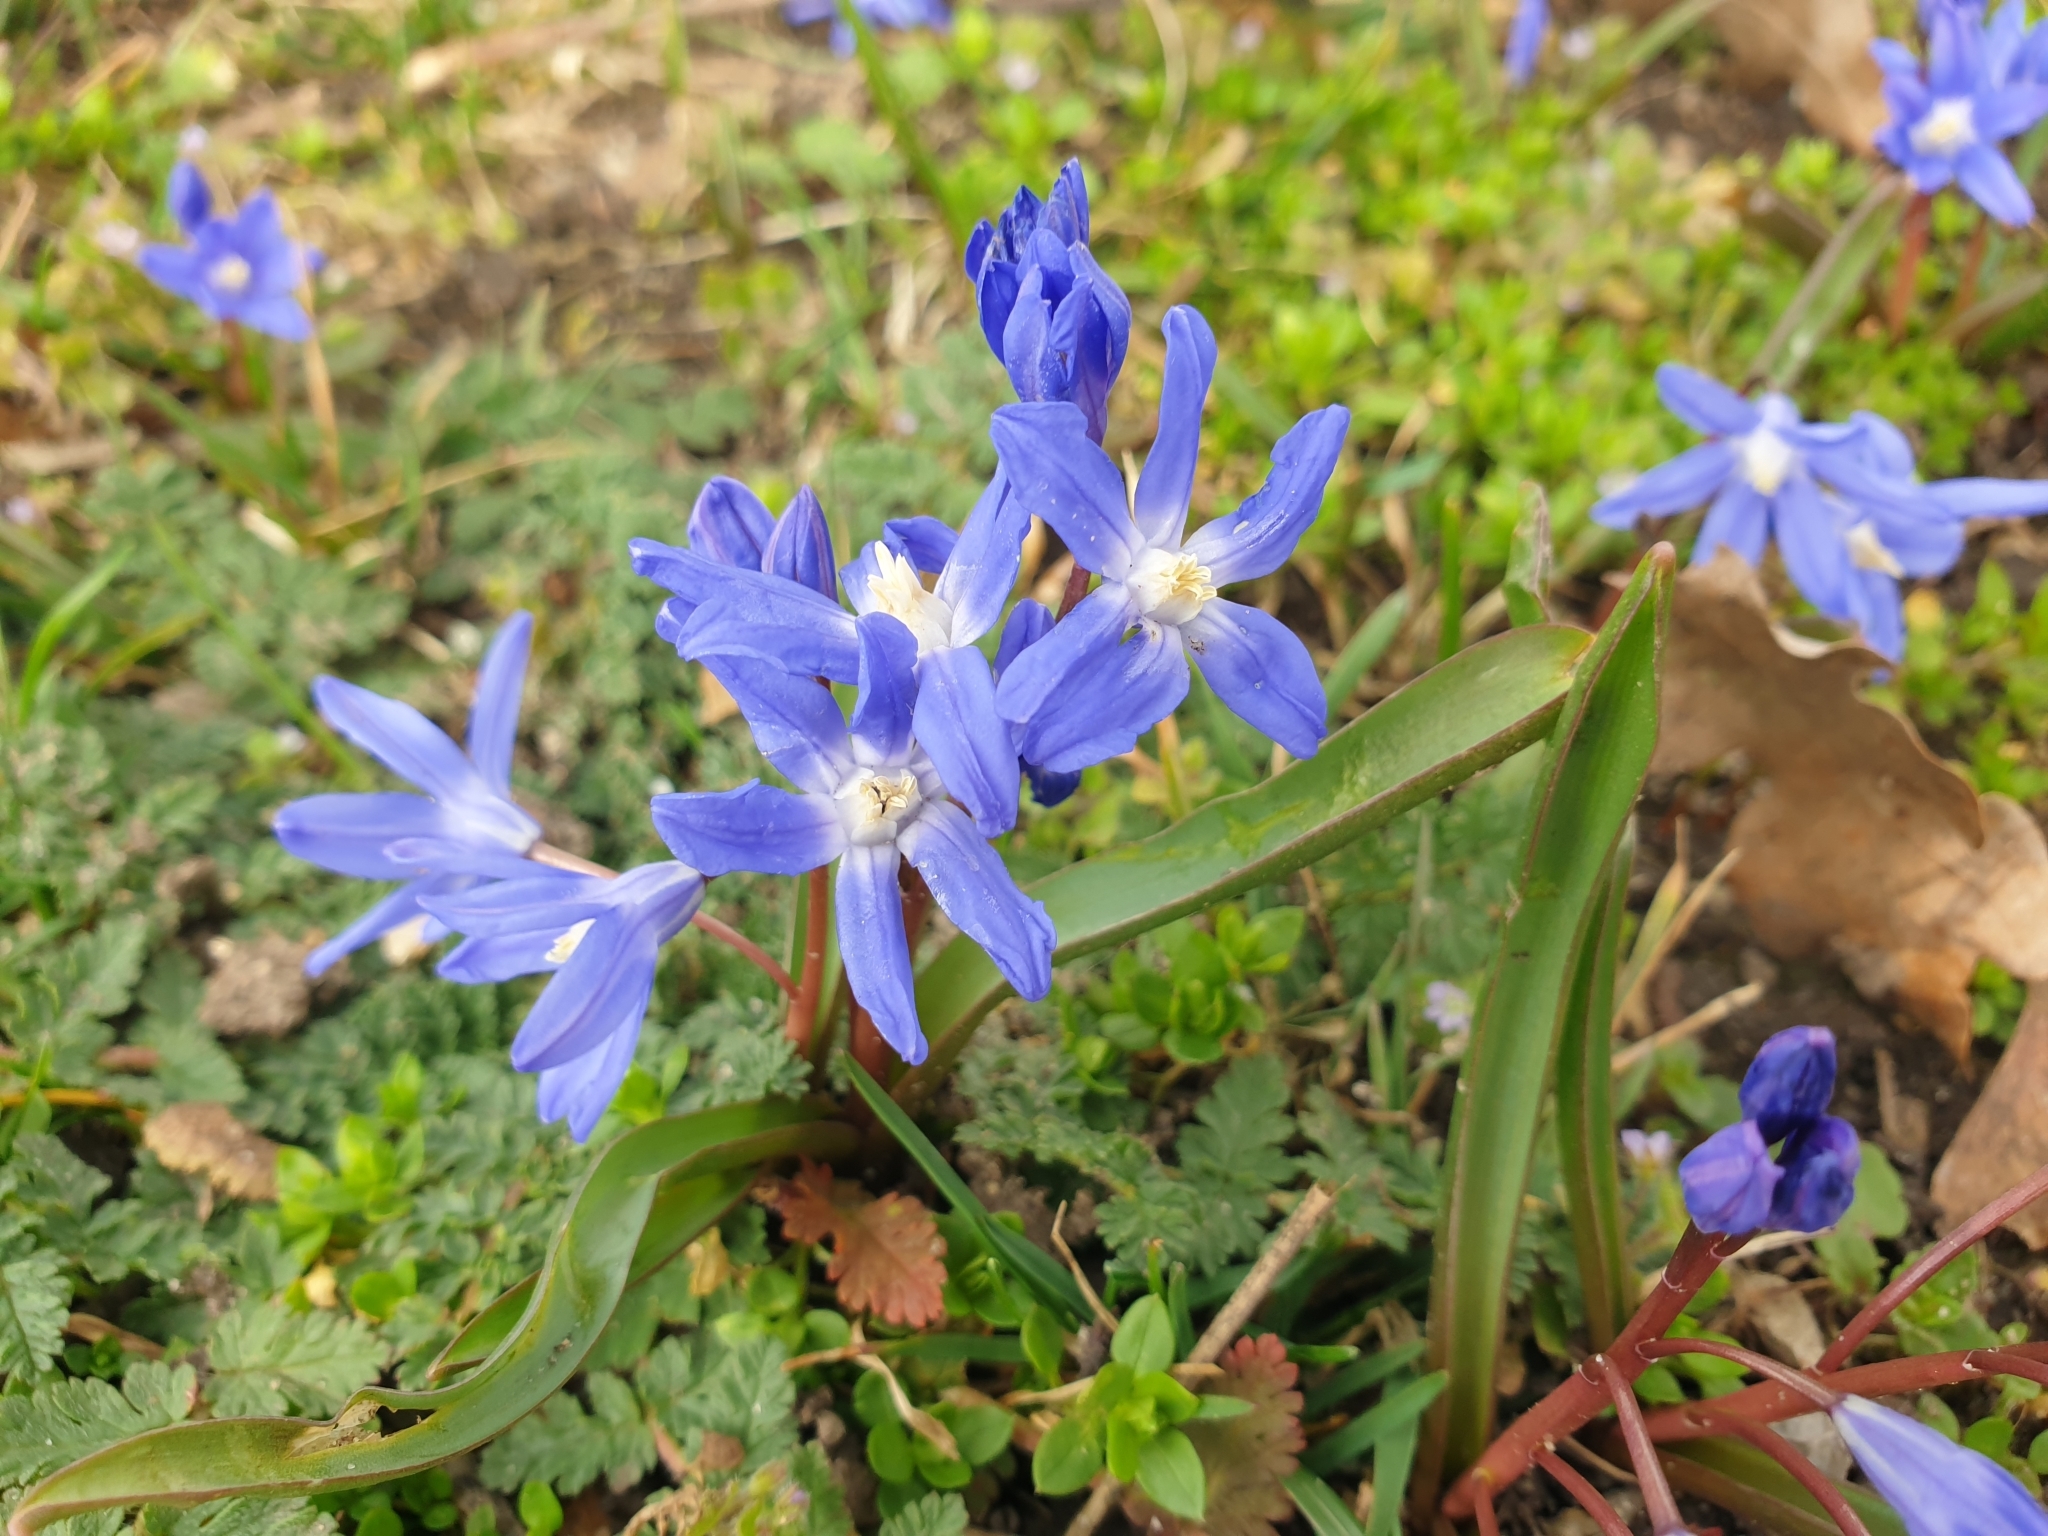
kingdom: Plantae
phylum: Tracheophyta
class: Liliopsida
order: Asparagales
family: Asparagaceae
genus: Scilla
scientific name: Scilla forbesii
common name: Glory-of-the-snow
